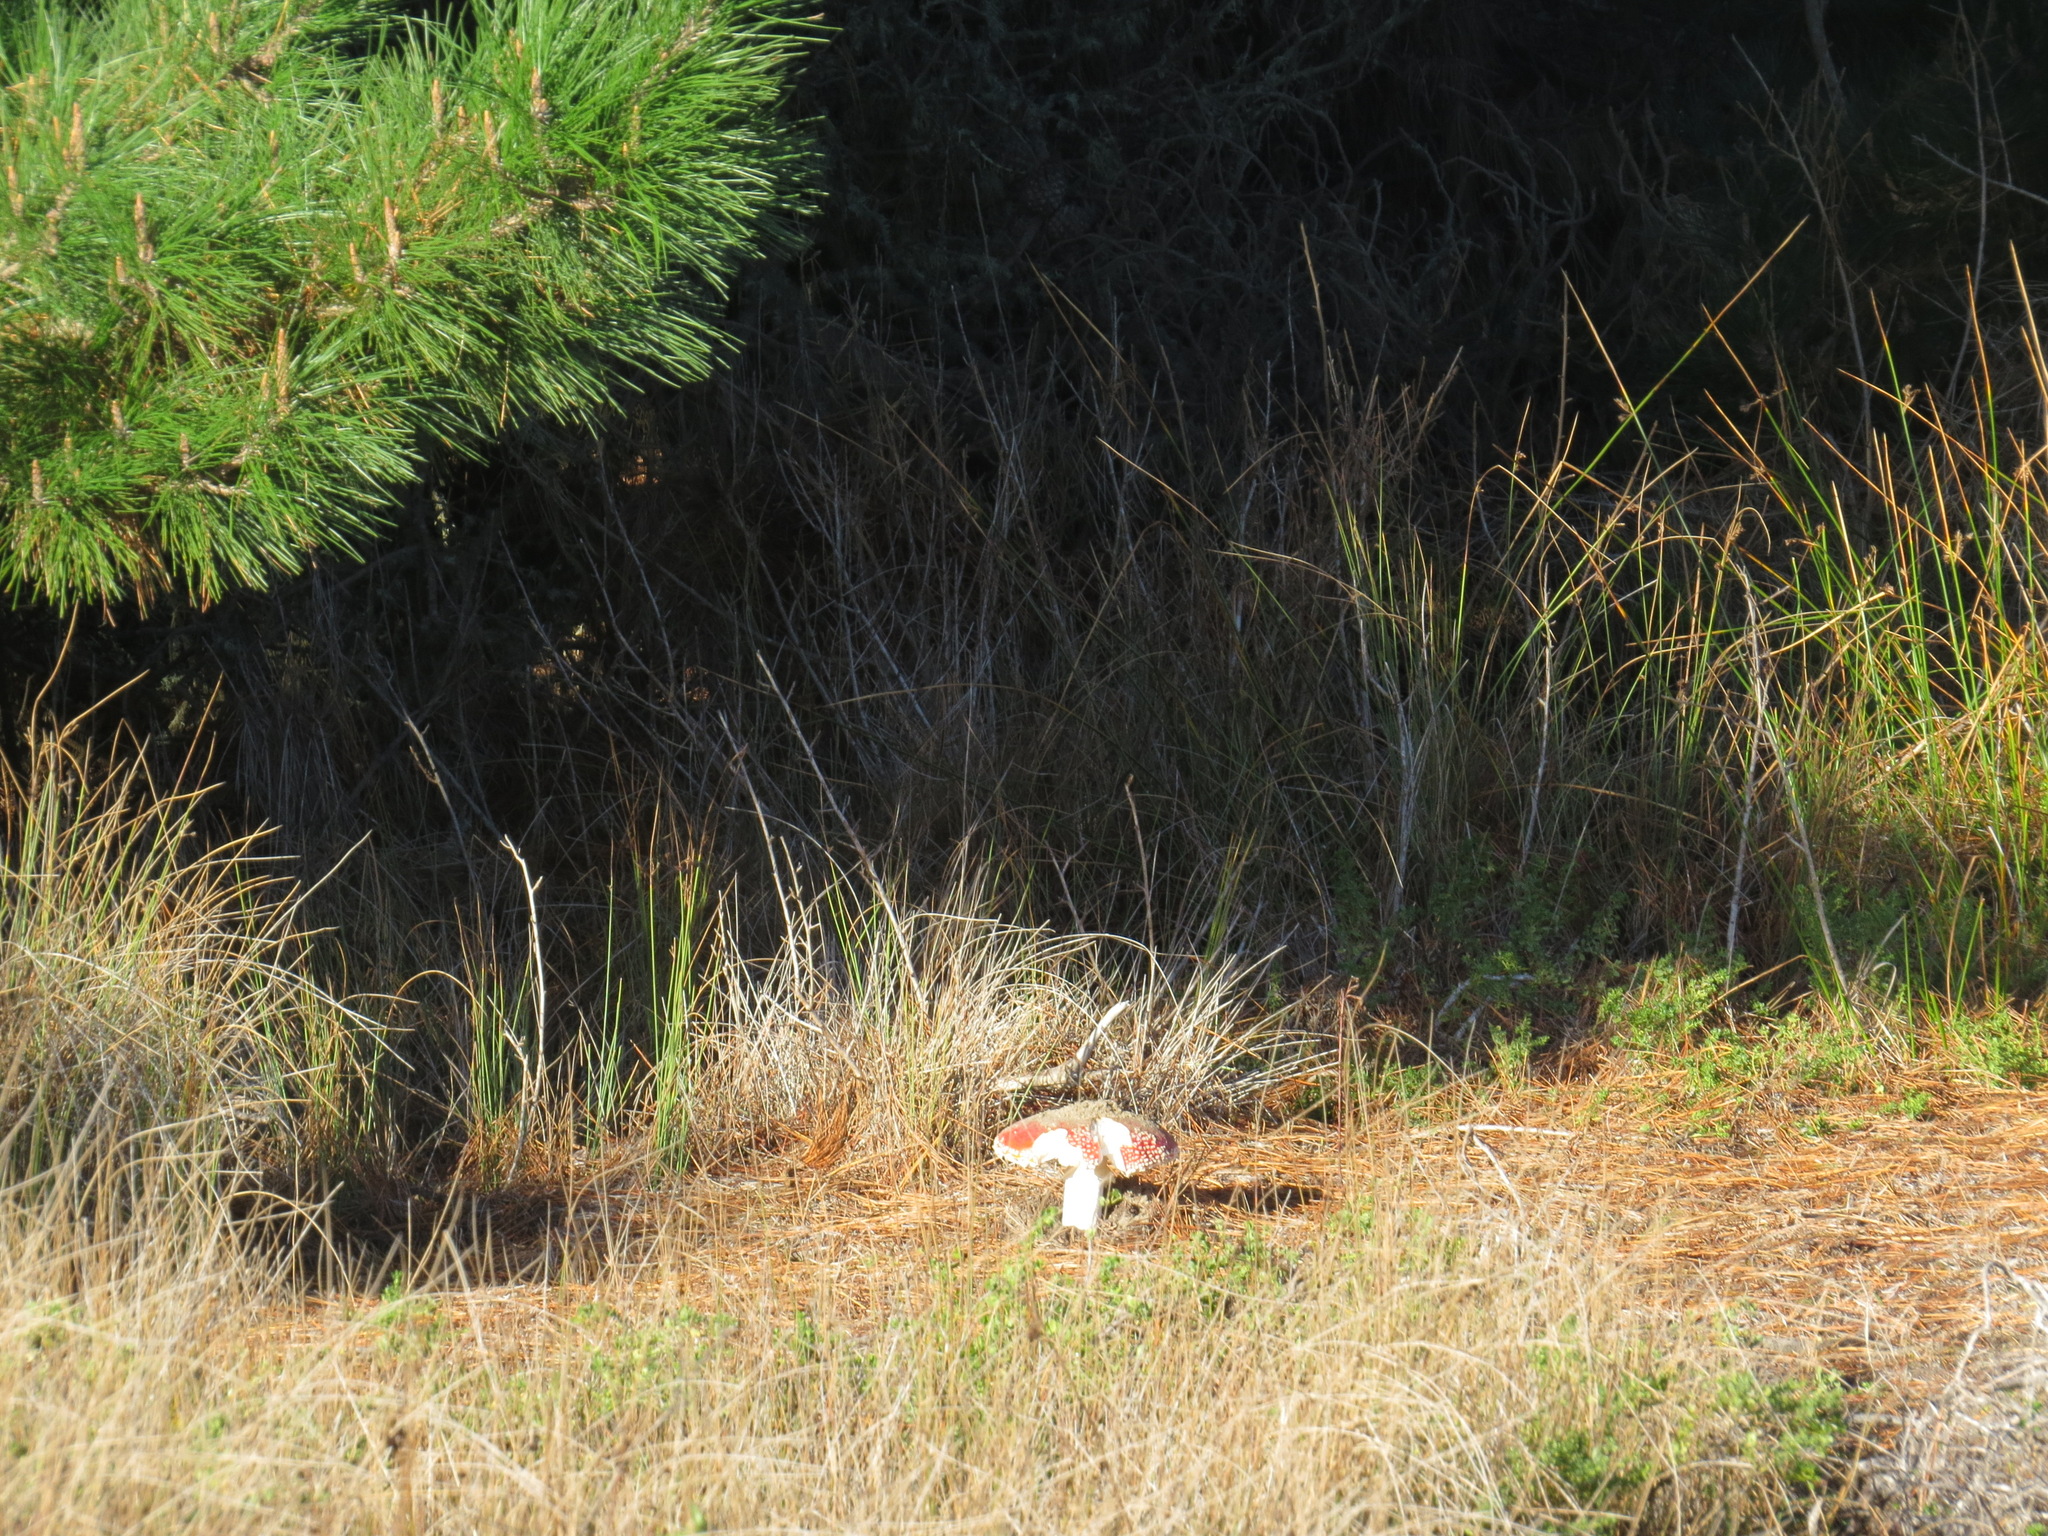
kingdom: Fungi
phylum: Basidiomycota
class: Agaricomycetes
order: Agaricales
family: Amanitaceae
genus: Amanita
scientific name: Amanita muscaria
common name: Fly agaric
